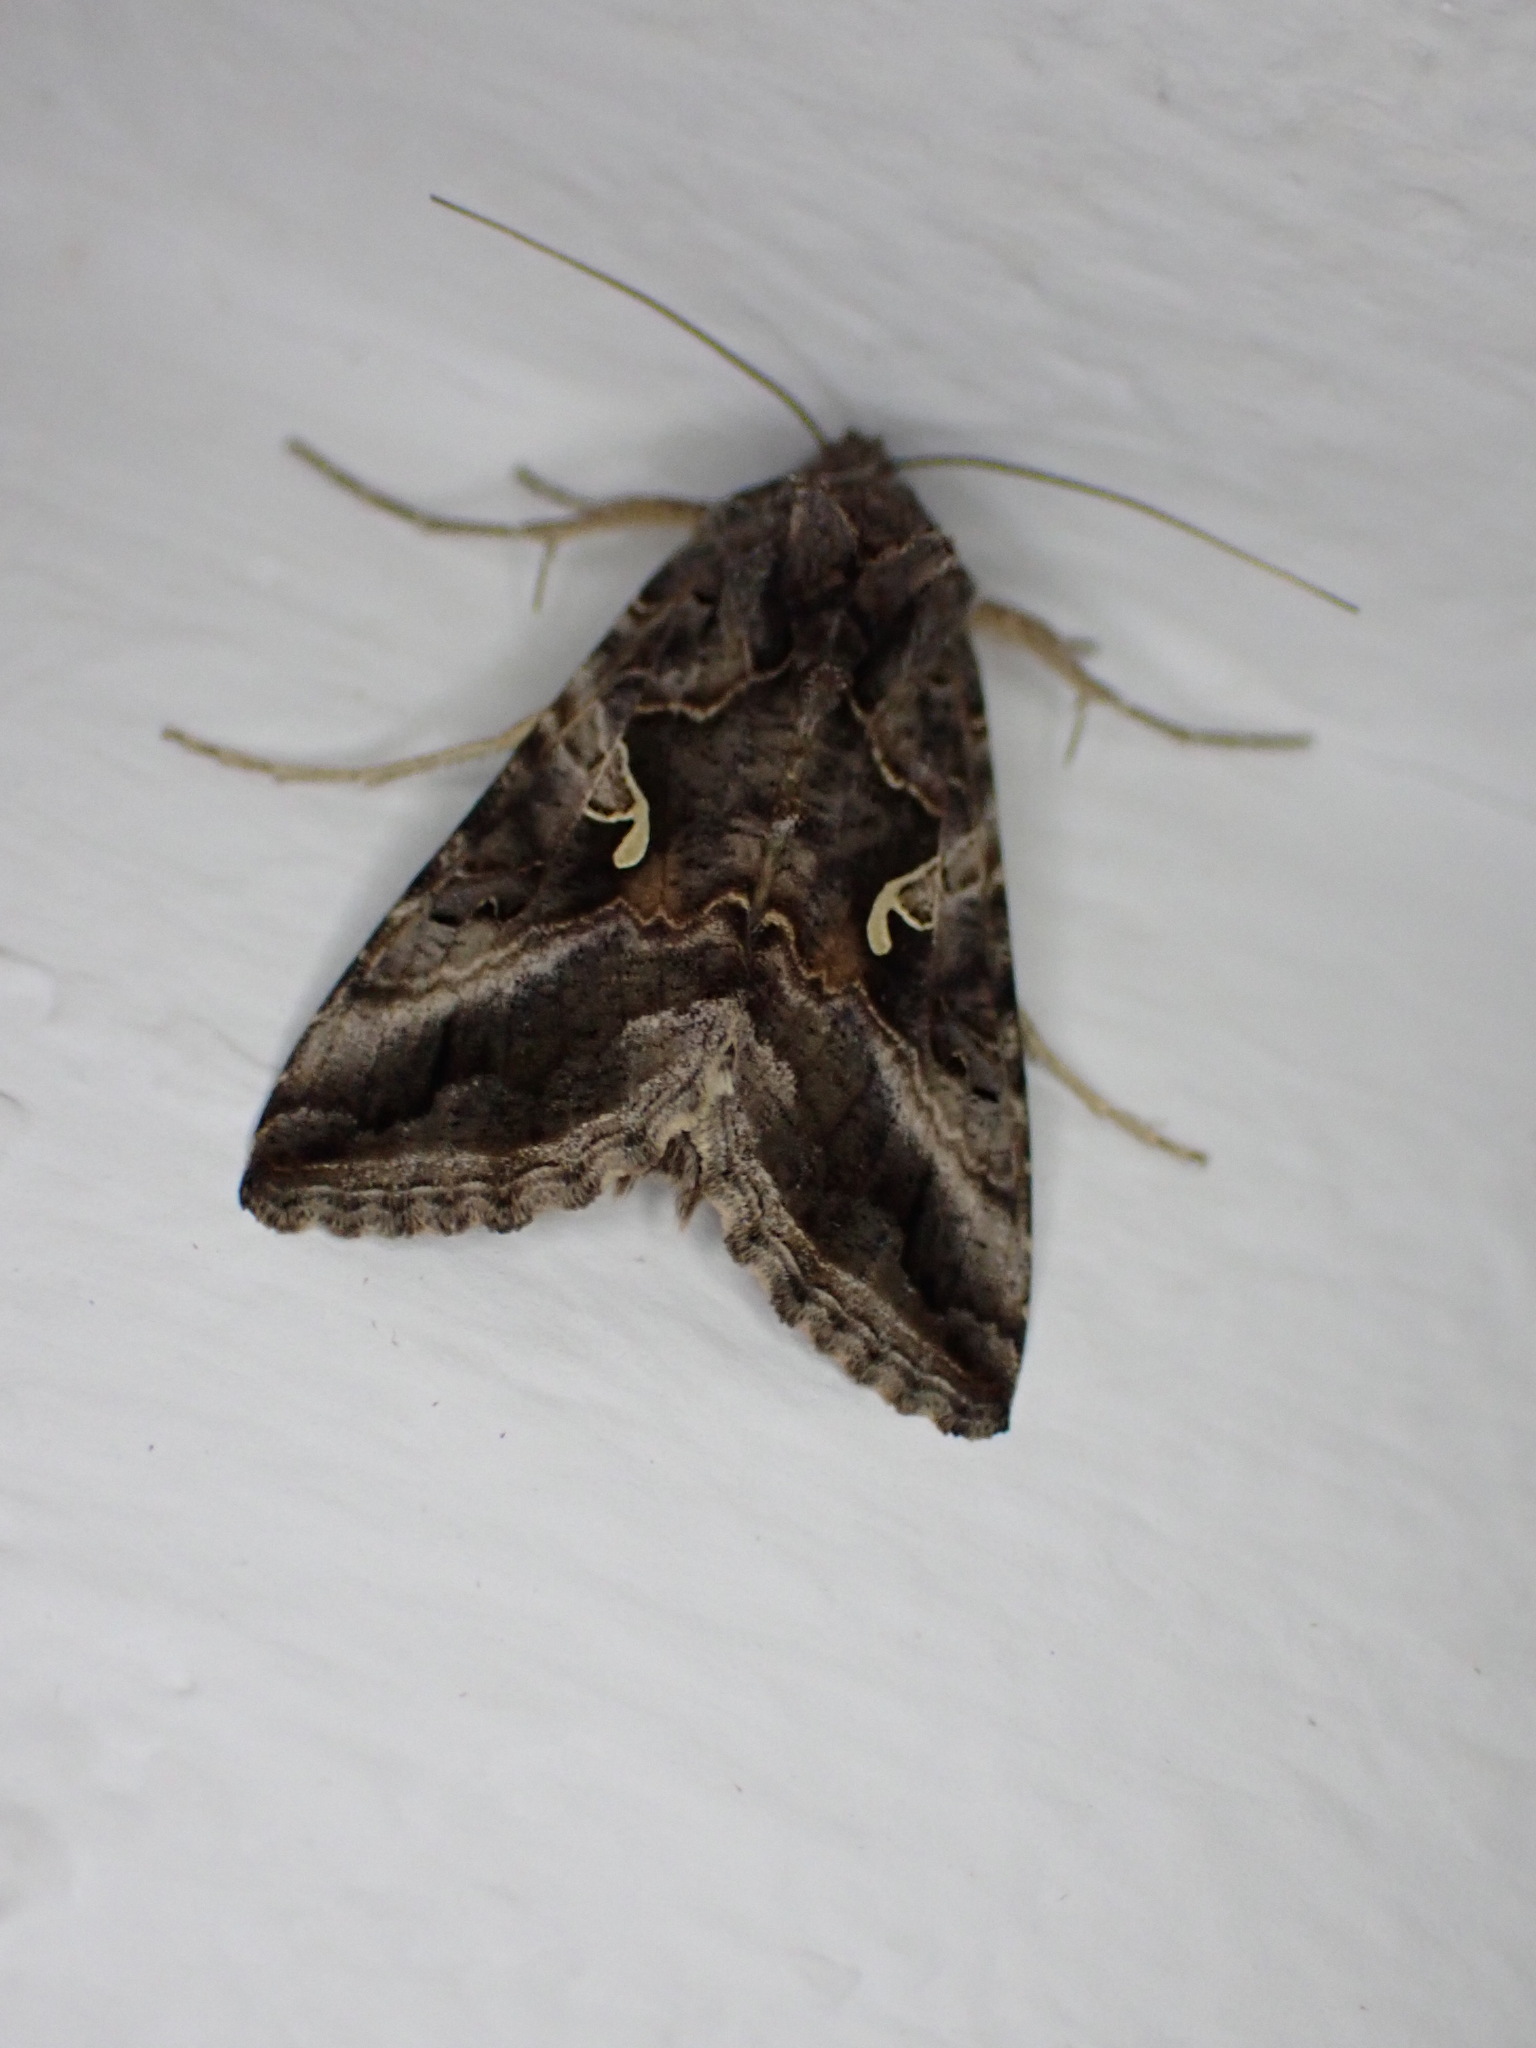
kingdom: Animalia
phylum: Arthropoda
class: Insecta
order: Lepidoptera
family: Noctuidae
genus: Autographa
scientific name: Autographa gamma
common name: Silver y
